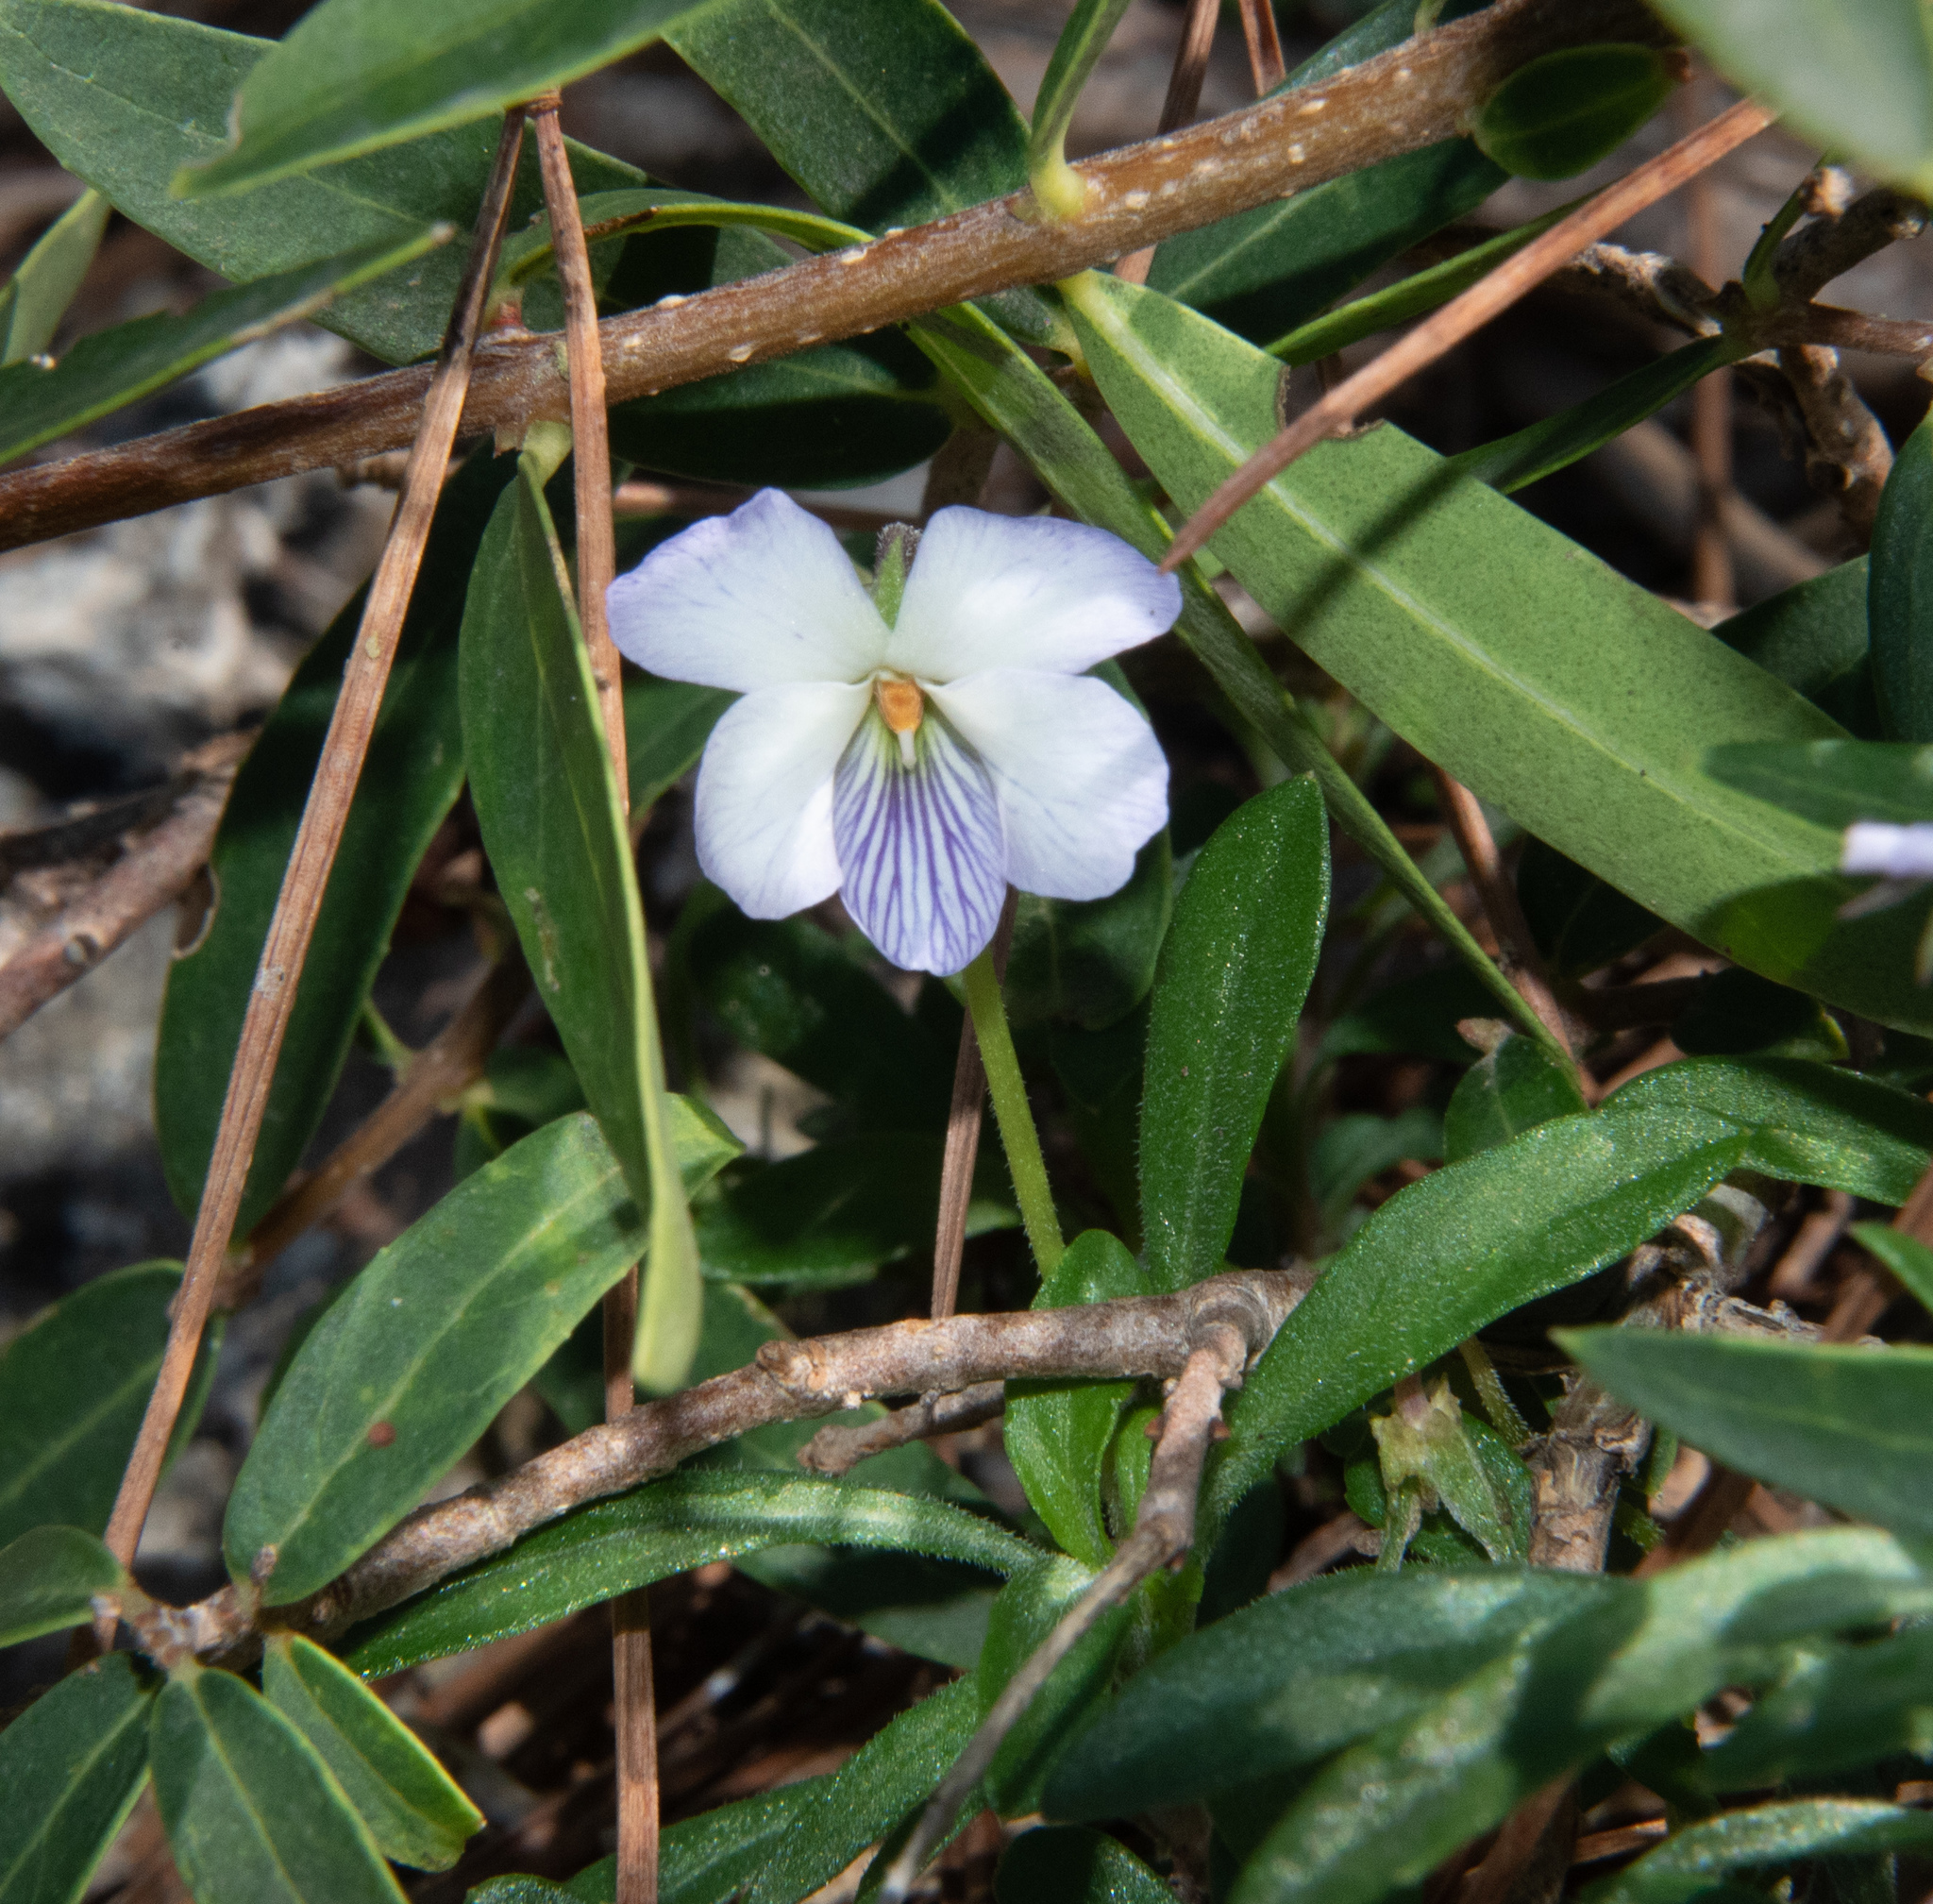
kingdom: Plantae
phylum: Tracheophyta
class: Magnoliopsida
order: Malpighiales
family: Violaceae
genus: Viola
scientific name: Viola arborescens
